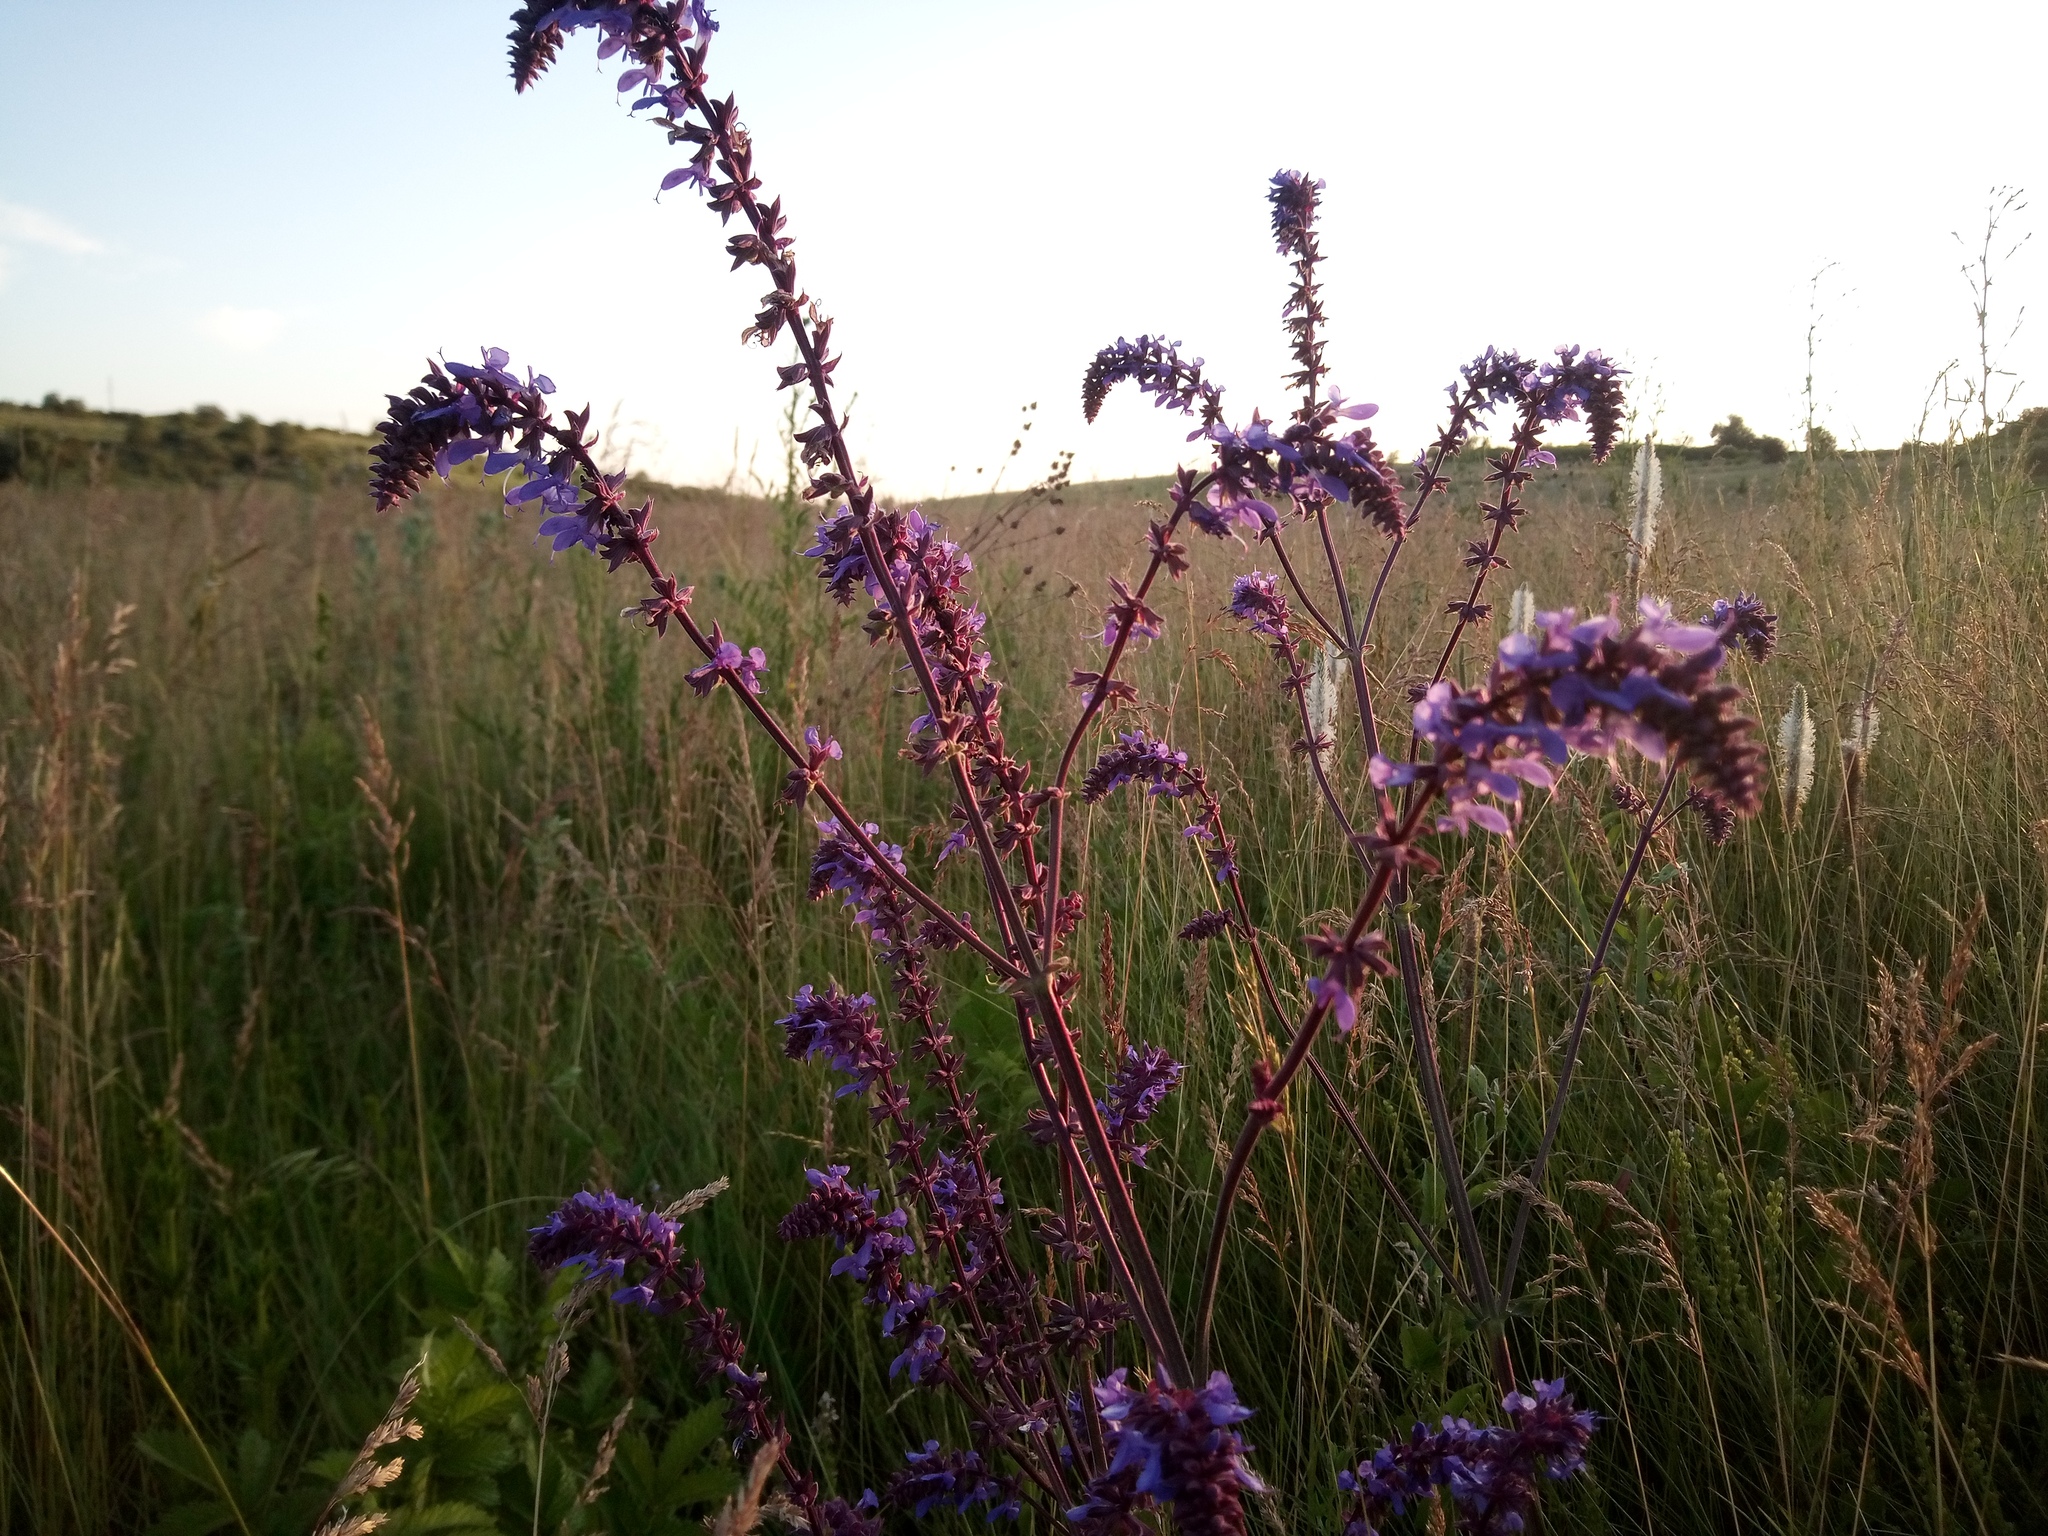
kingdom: Plantae
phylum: Tracheophyta
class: Magnoliopsida
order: Lamiales
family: Lamiaceae
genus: Salvia
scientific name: Salvia pratensis
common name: Meadow sage
